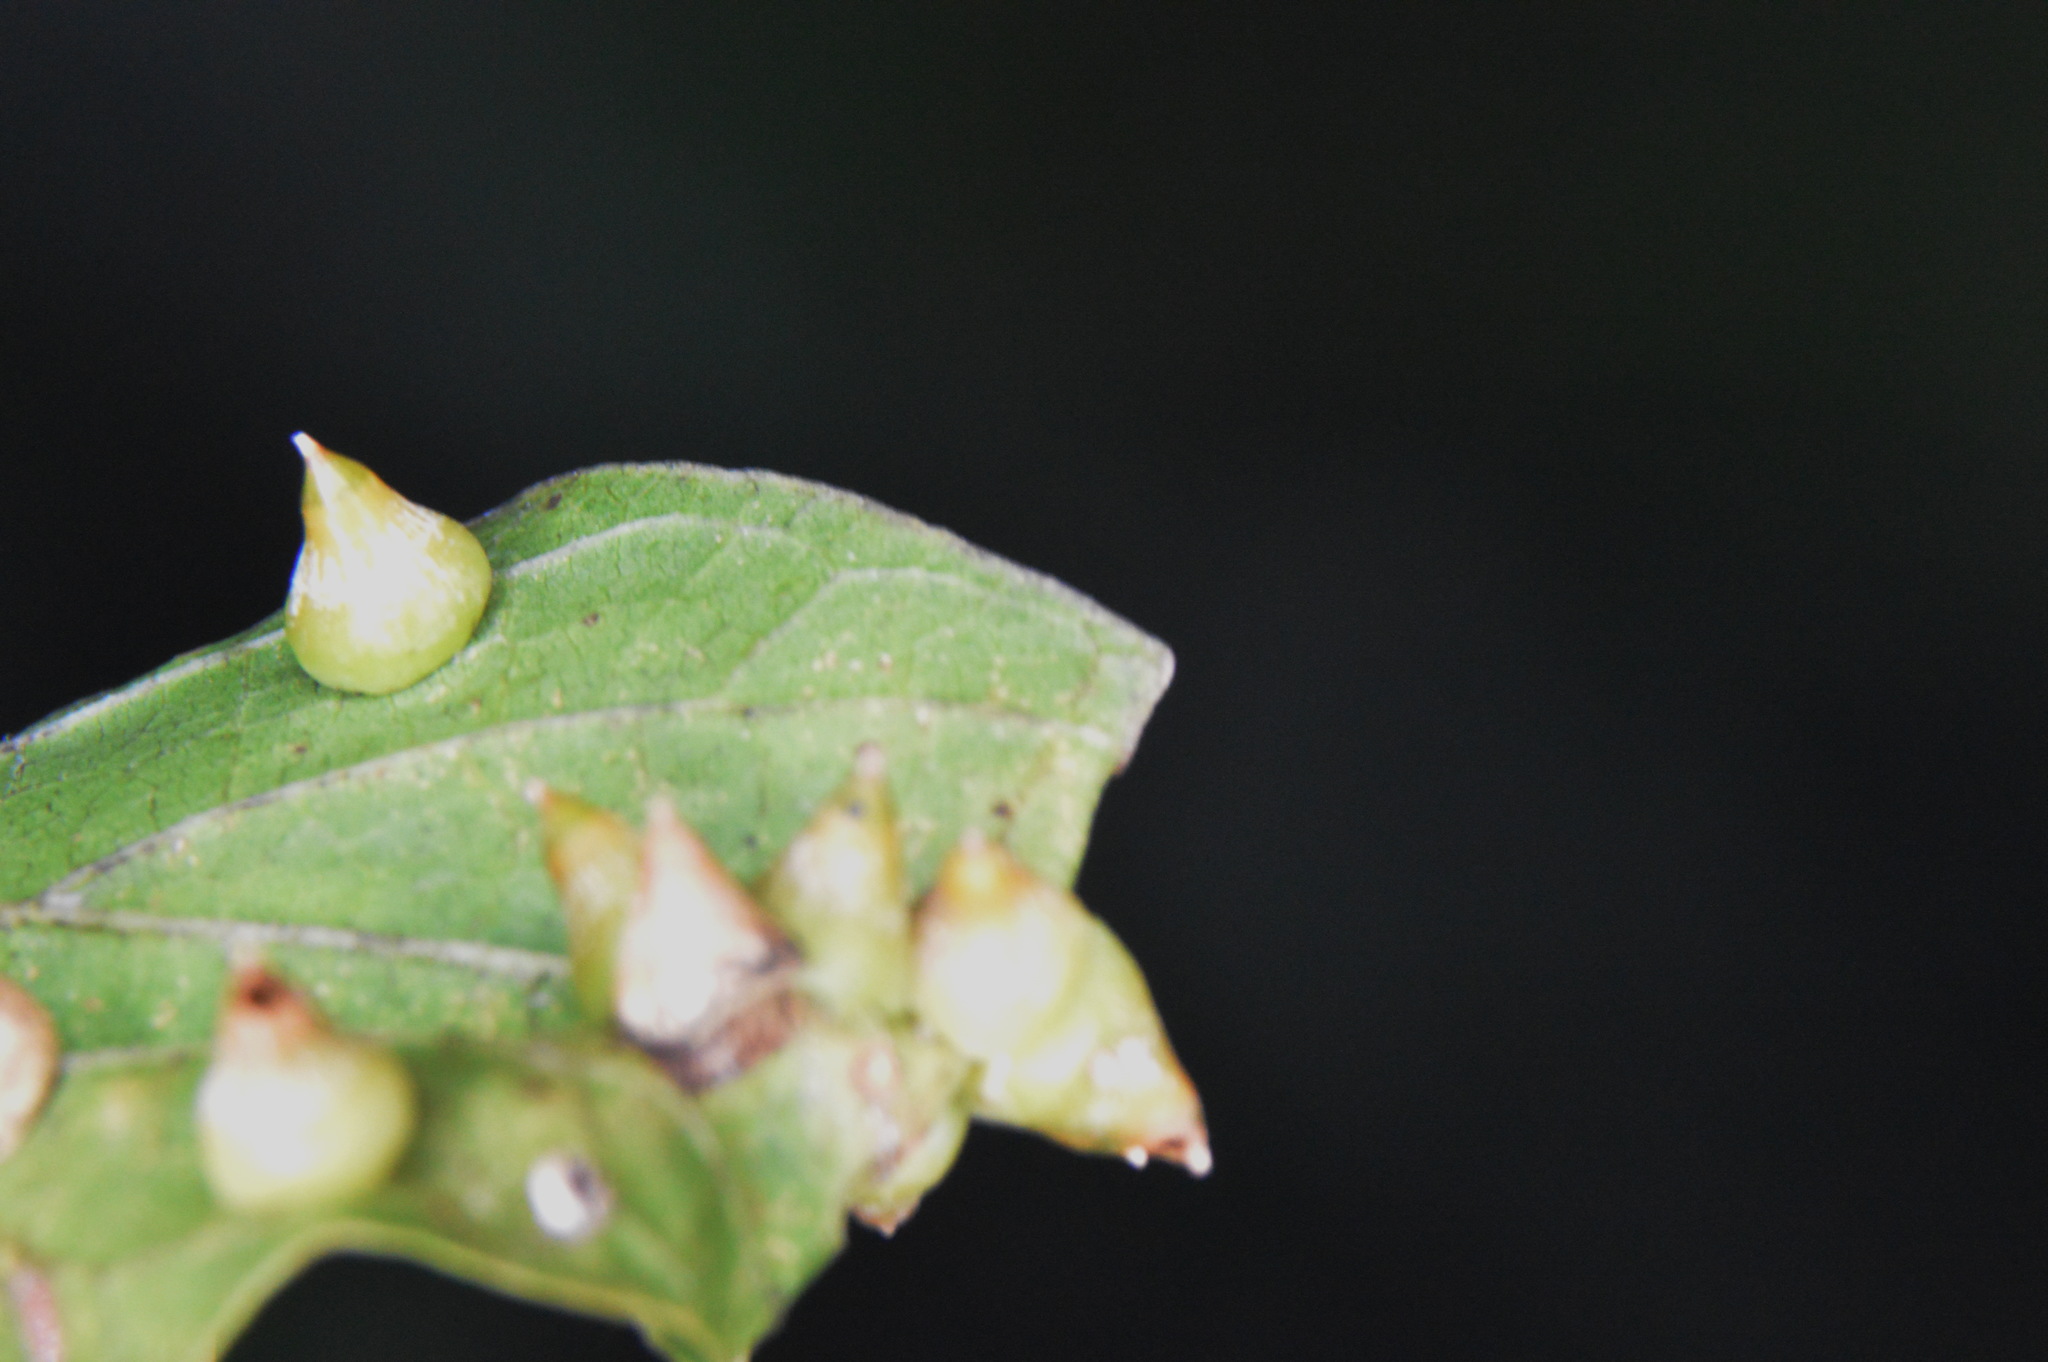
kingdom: Animalia
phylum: Arthropoda
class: Insecta
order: Diptera
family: Cecidomyiidae
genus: Celticecis
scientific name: Celticecis spiniformis
